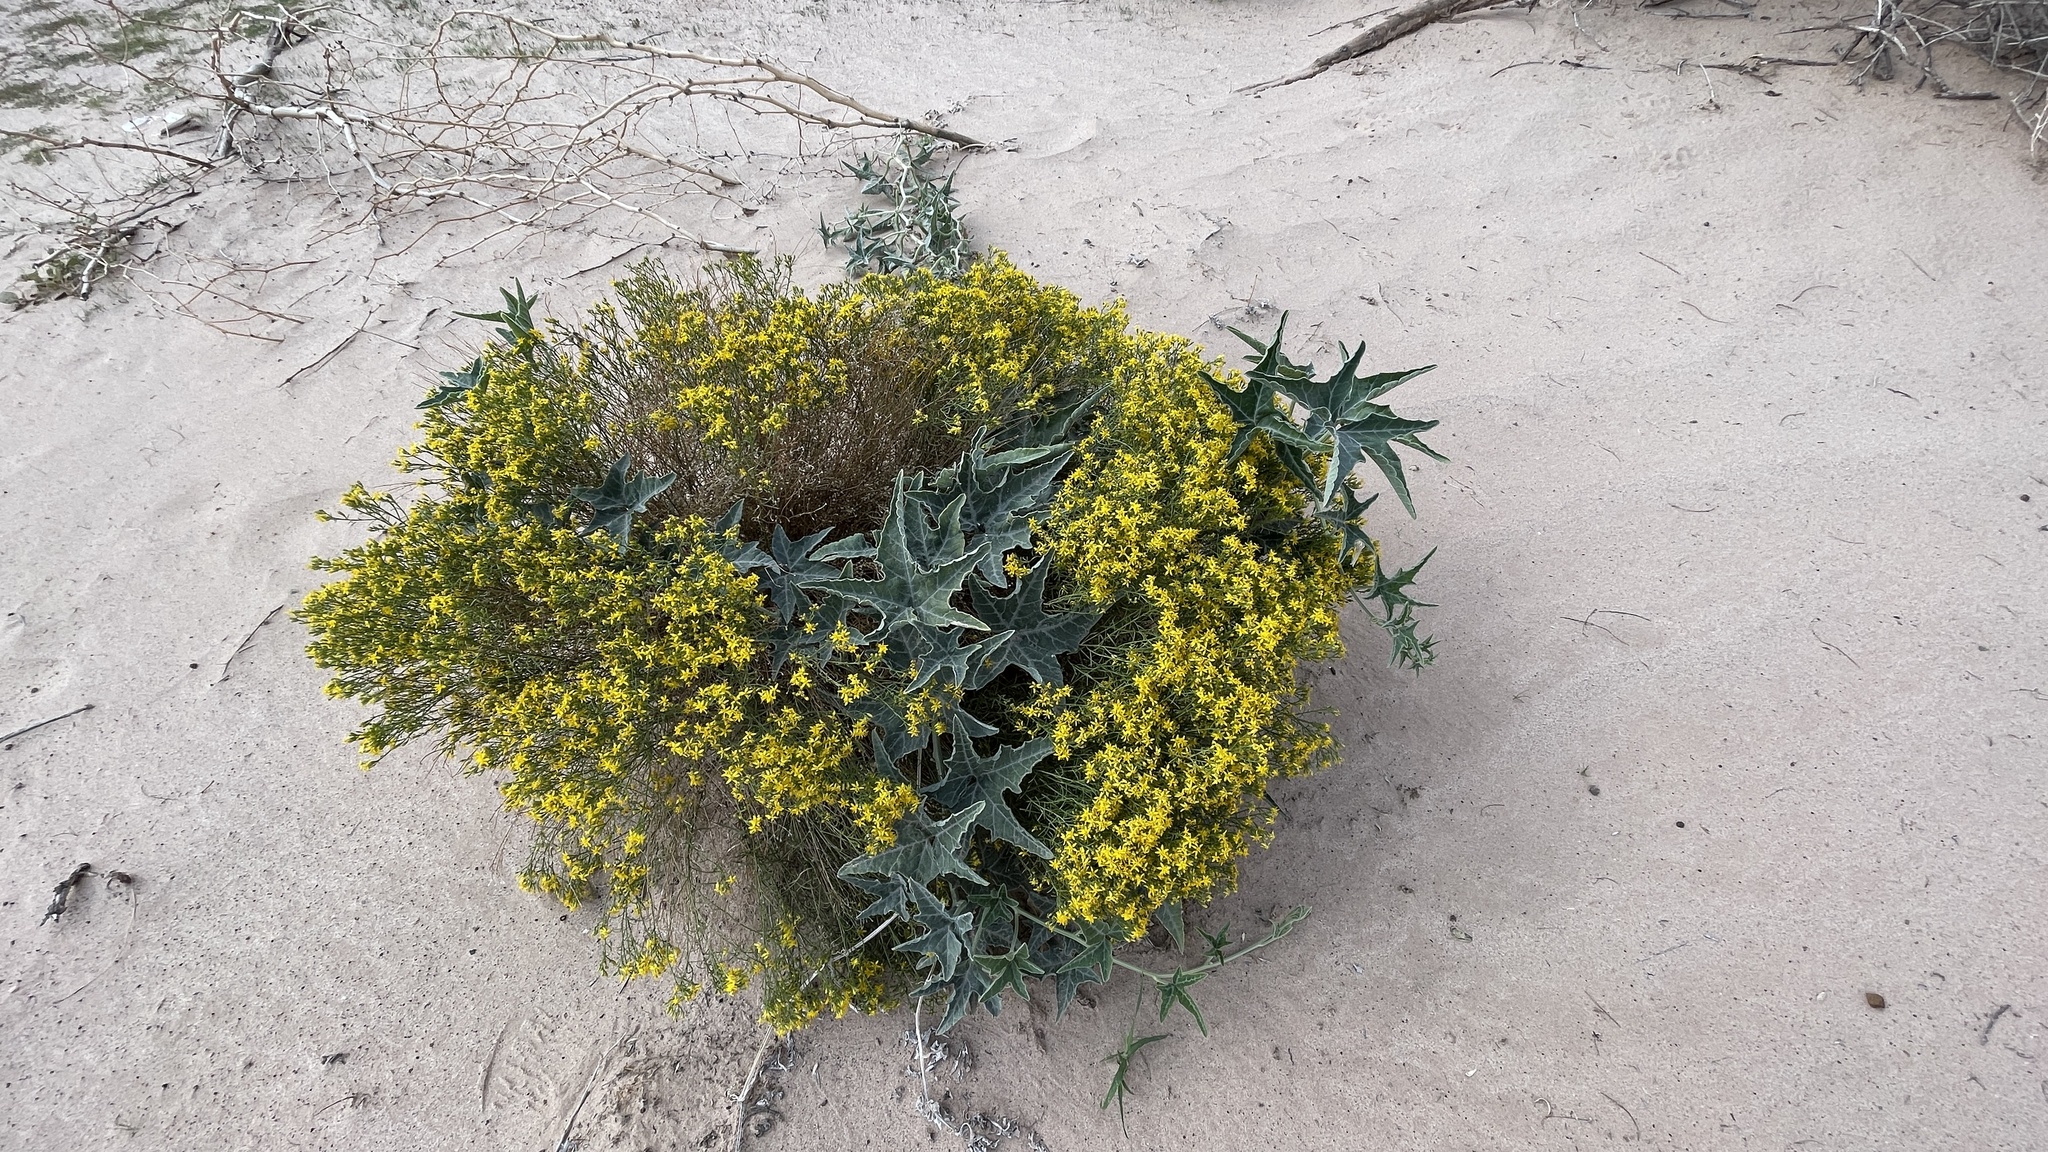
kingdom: Plantae
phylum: Tracheophyta
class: Magnoliopsida
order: Cucurbitales
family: Cucurbitaceae
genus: Cucurbita
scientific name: Cucurbita palmata
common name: Coyote-melon
